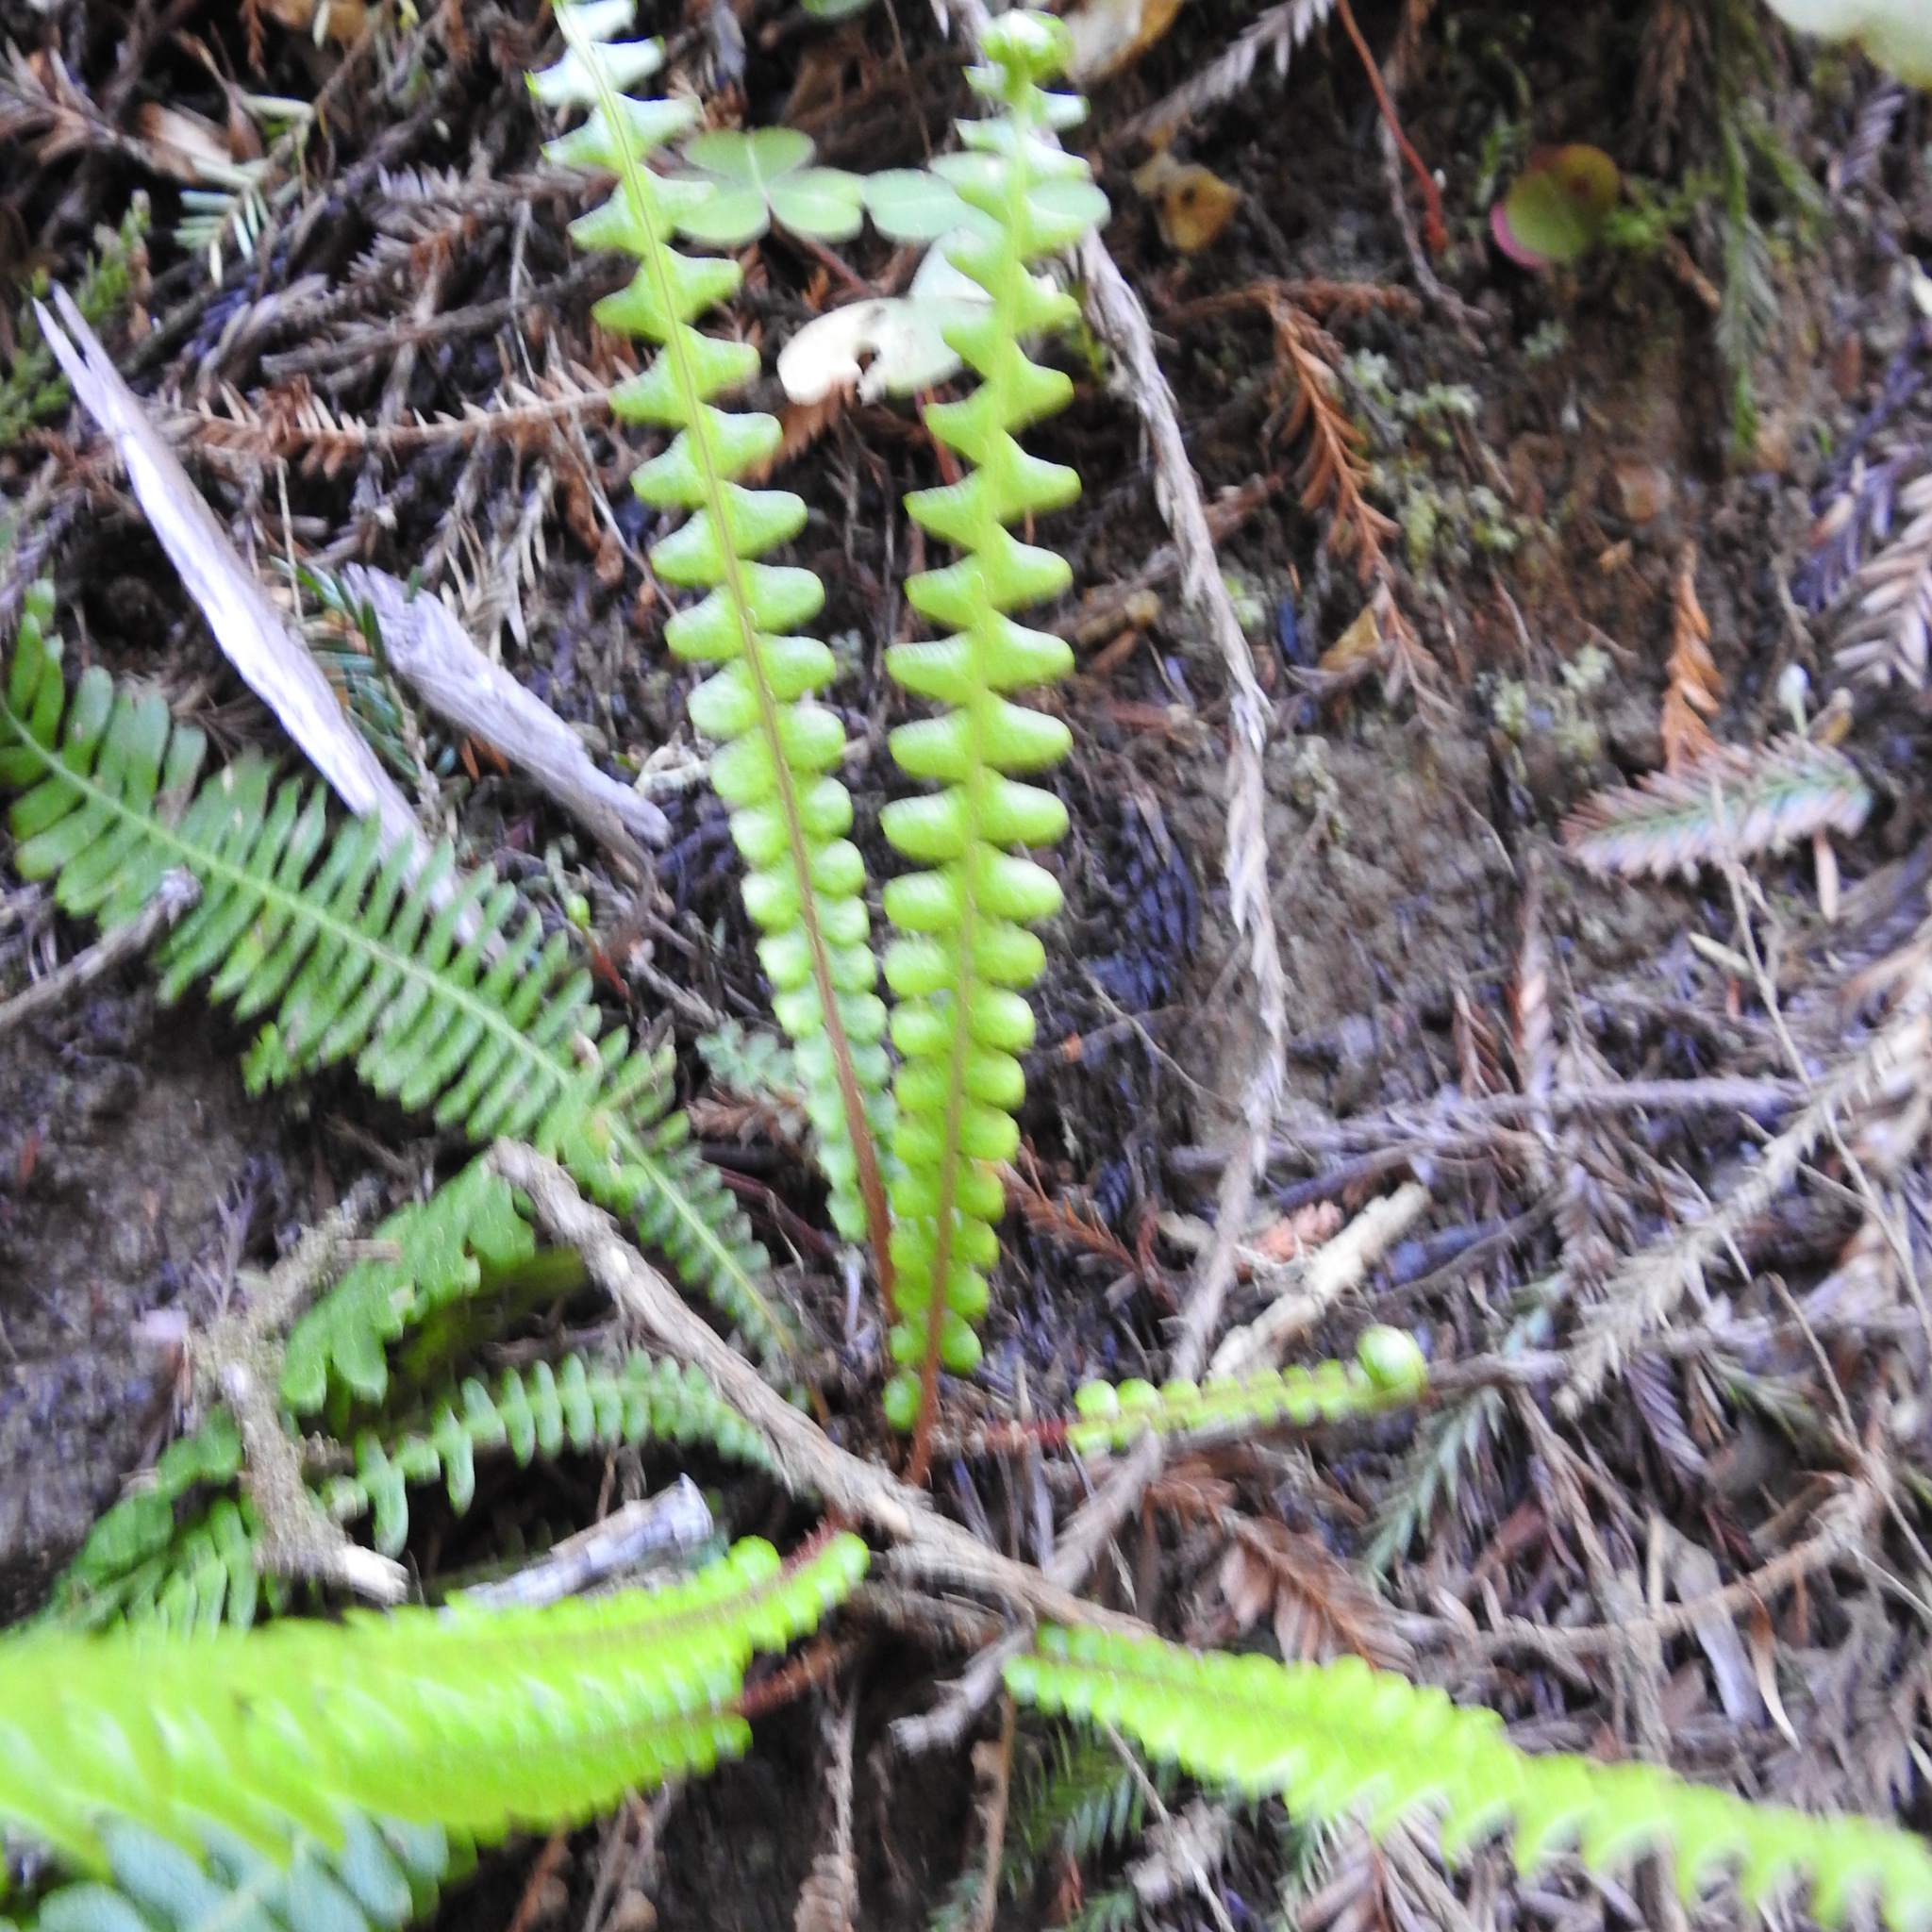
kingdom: Plantae
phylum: Tracheophyta
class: Polypodiopsida
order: Polypodiales
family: Blechnaceae
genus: Struthiopteris
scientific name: Struthiopteris spicant
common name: Deer fern
